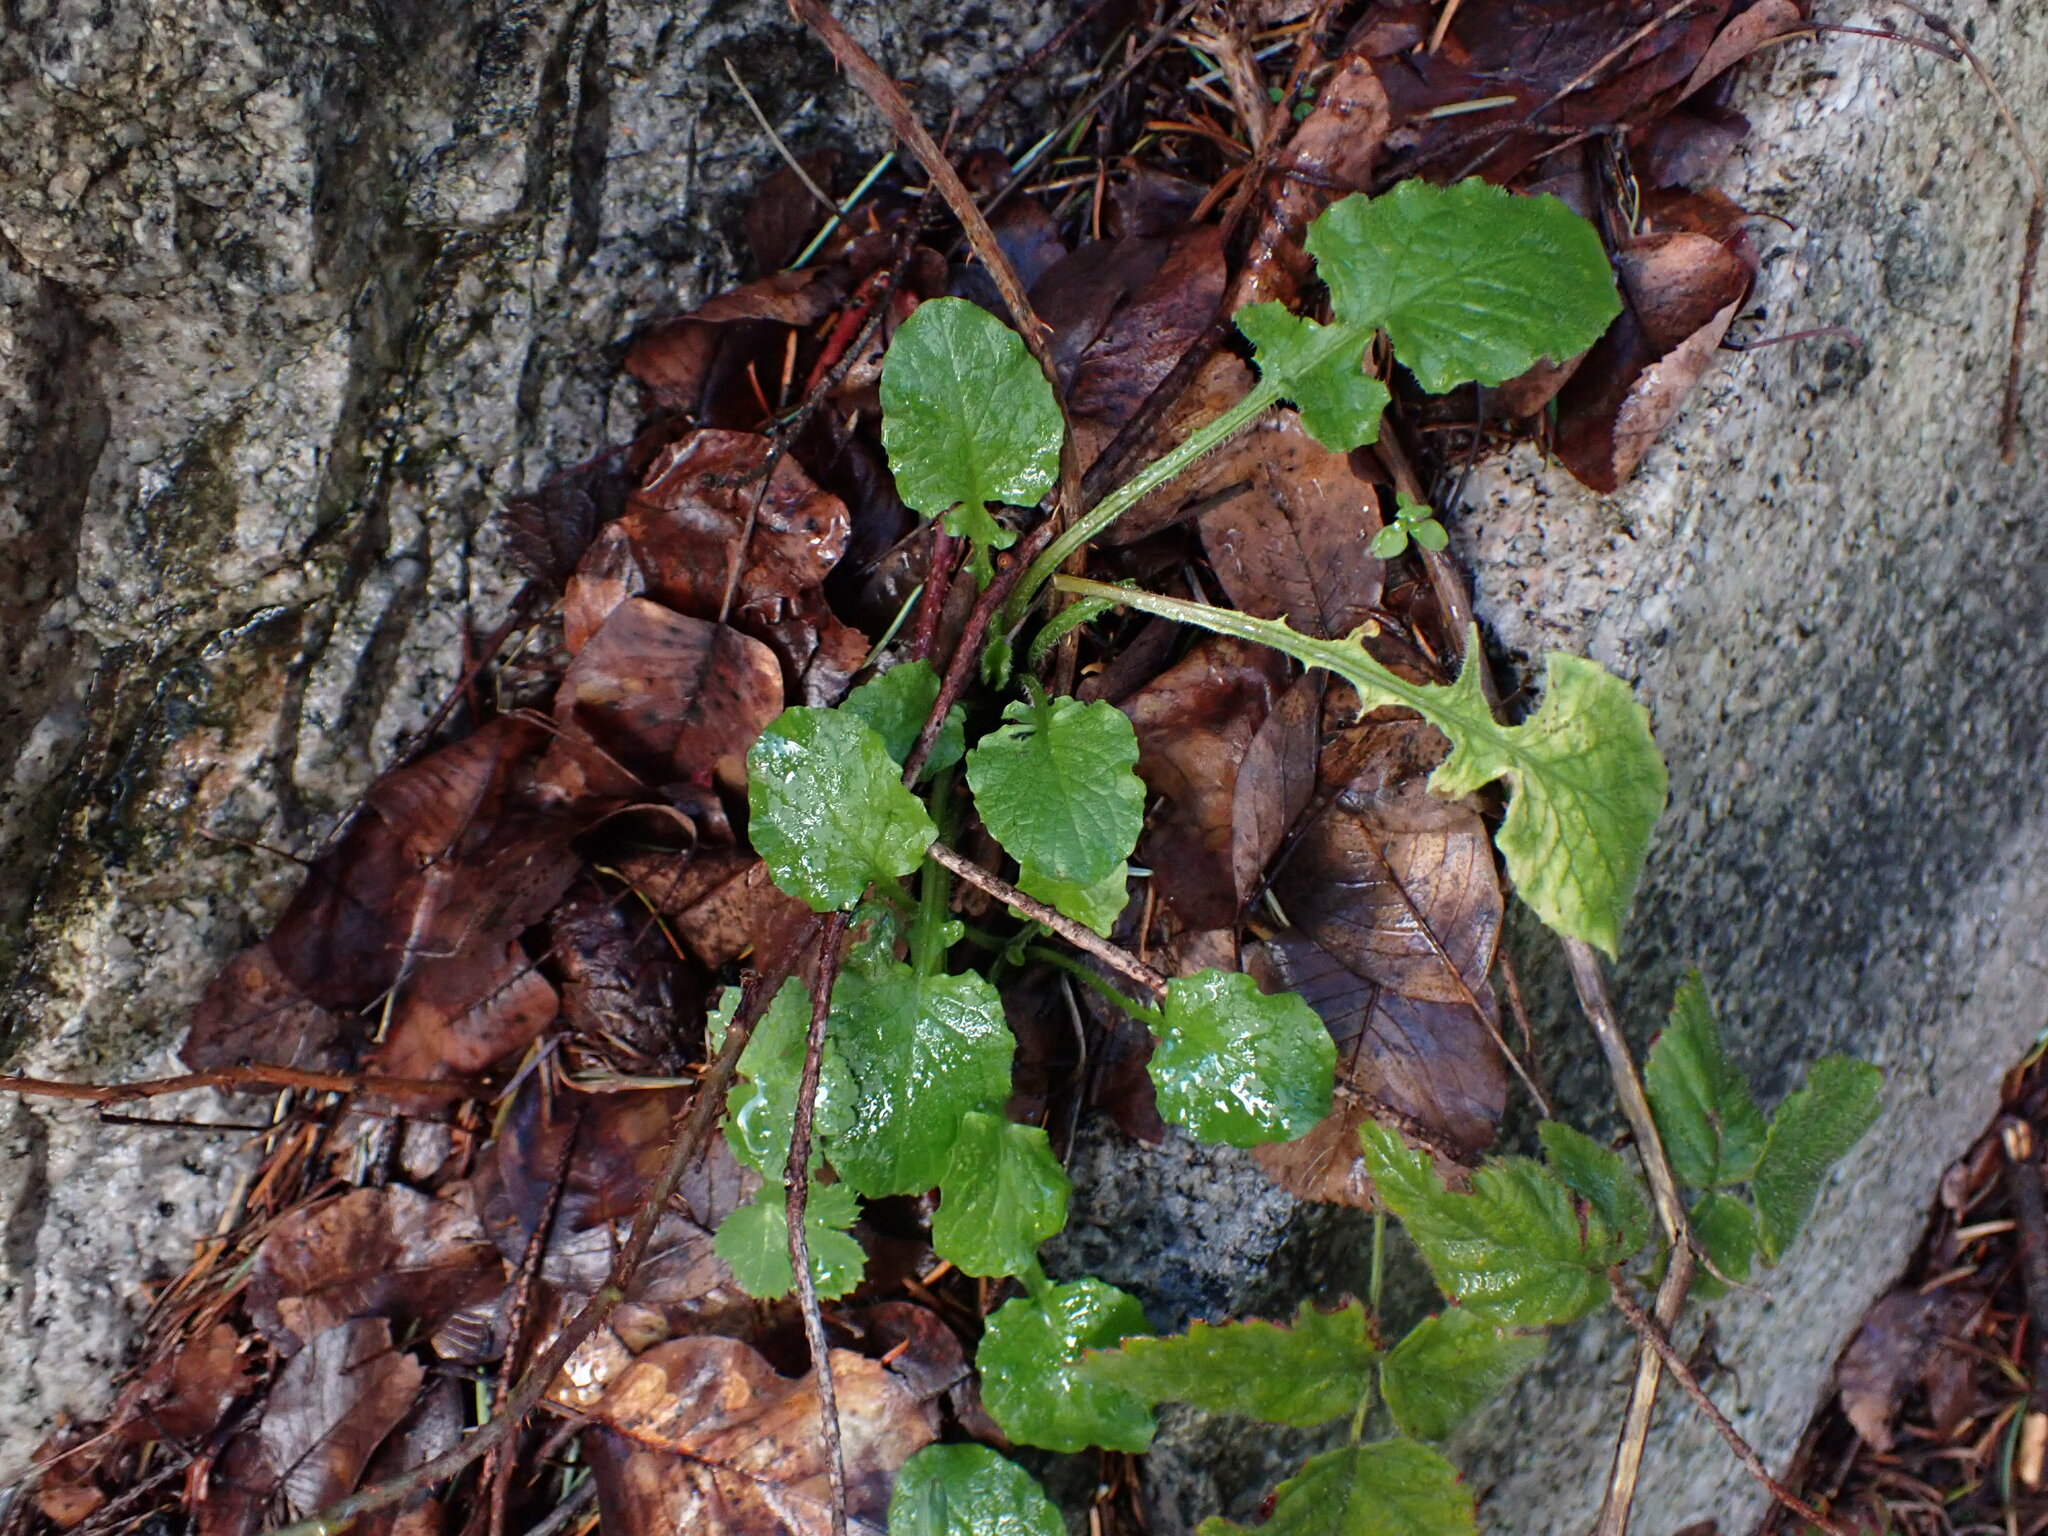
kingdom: Plantae
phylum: Tracheophyta
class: Magnoliopsida
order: Asterales
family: Asteraceae
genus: Lapsana
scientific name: Lapsana communis
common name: Nipplewort
